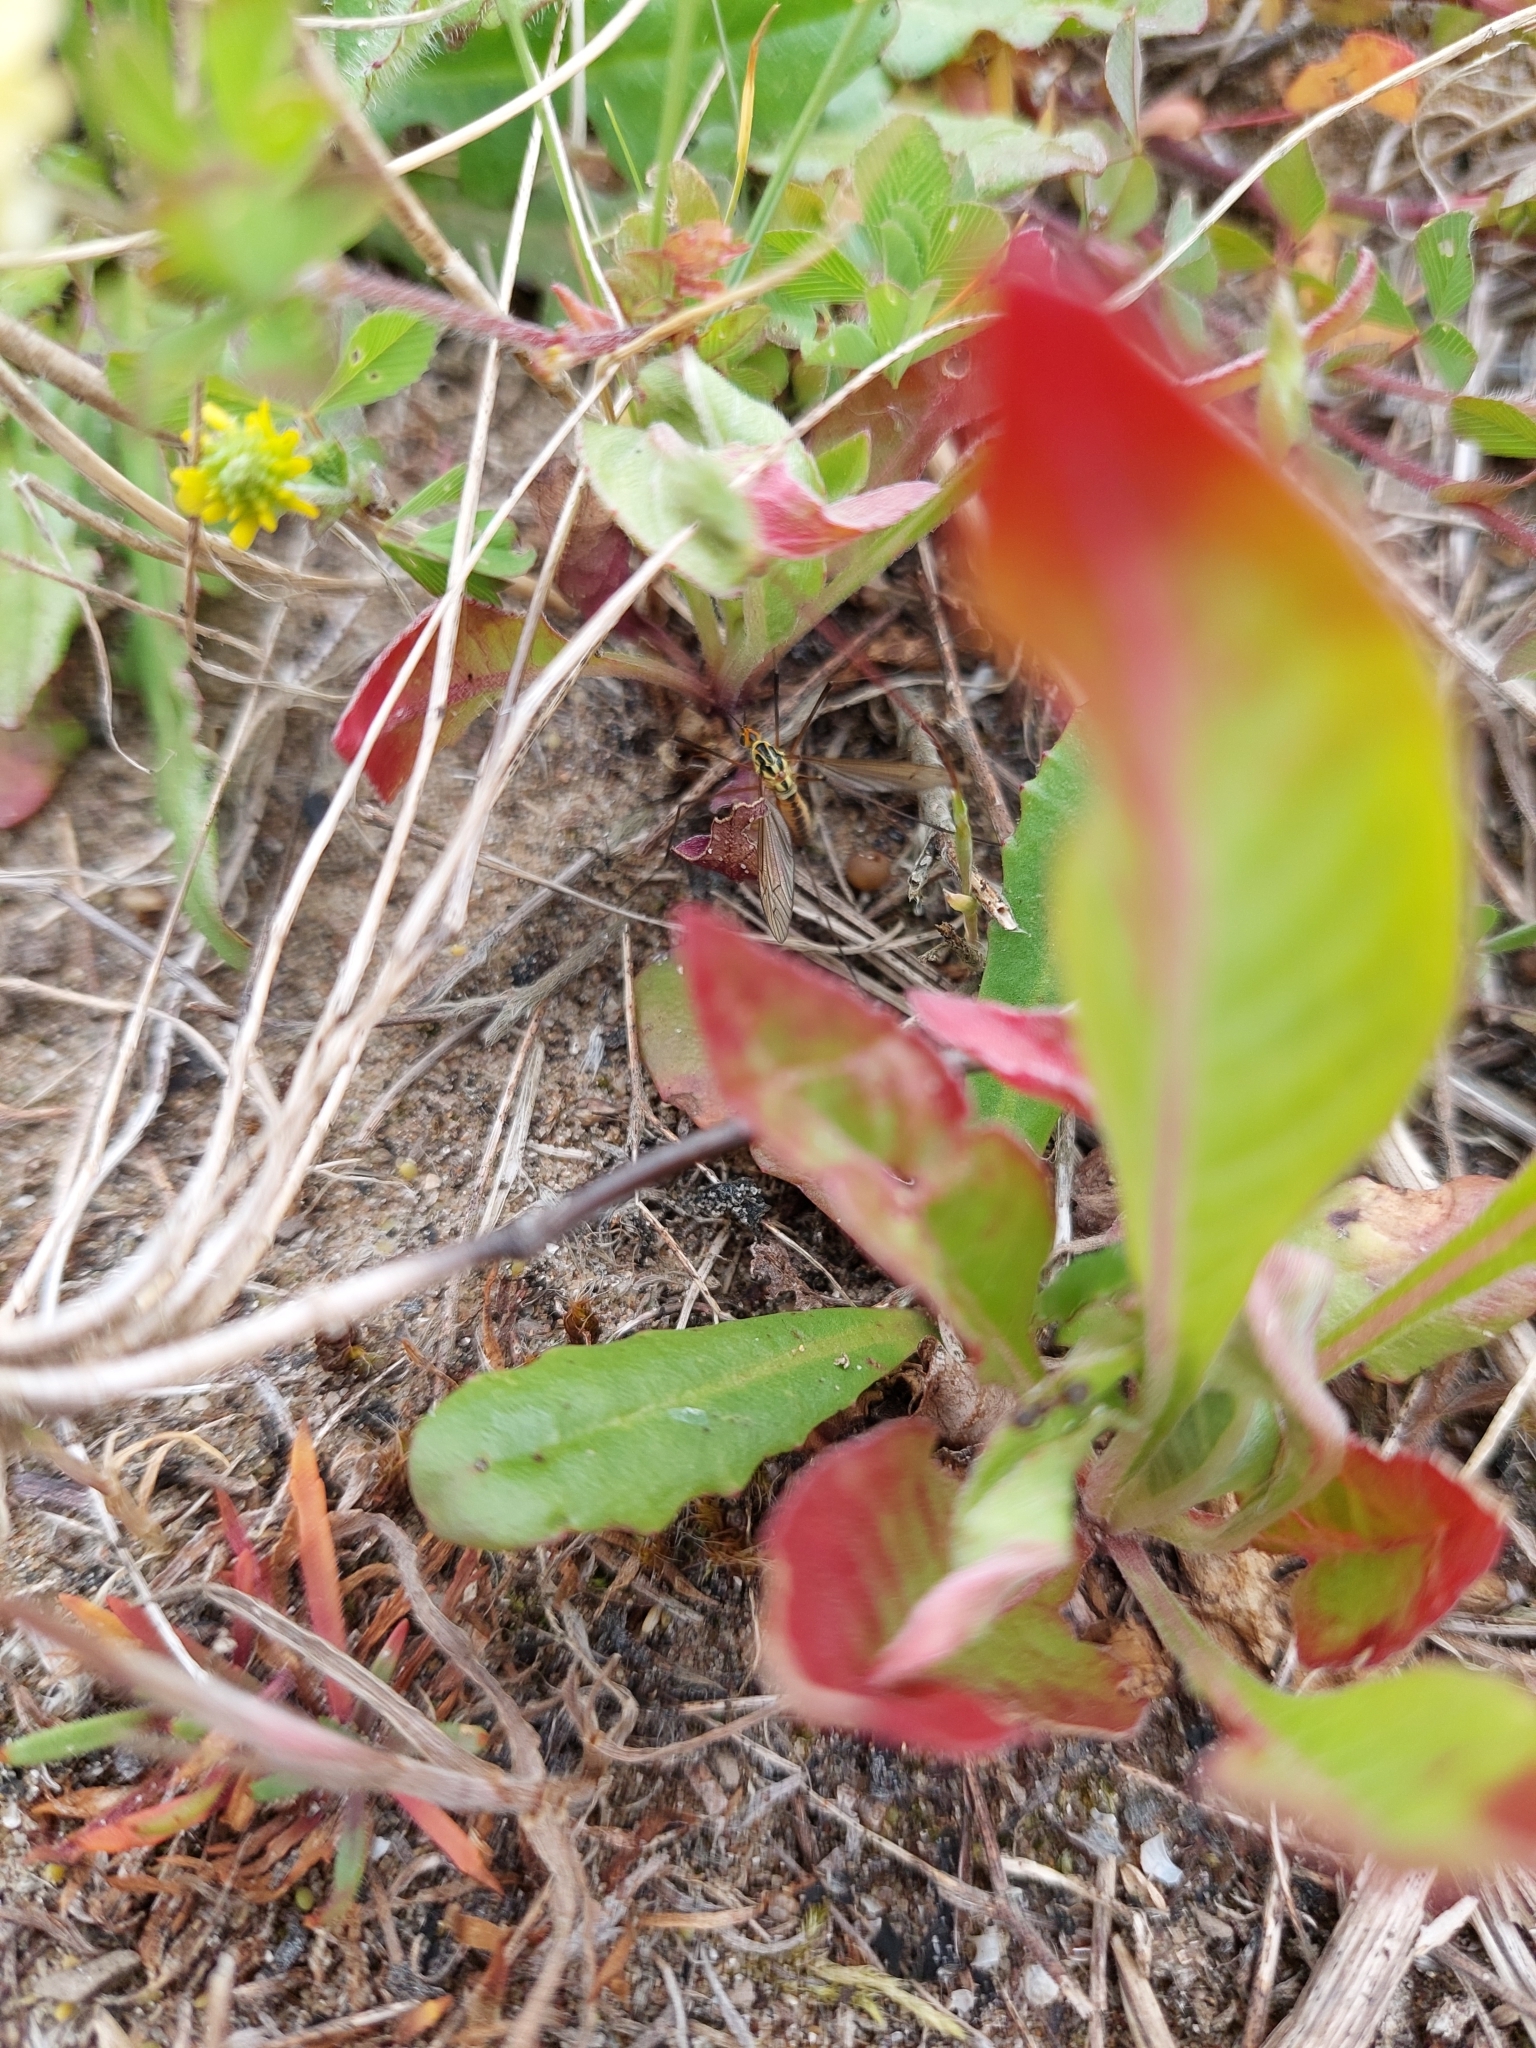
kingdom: Animalia
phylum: Arthropoda
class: Insecta
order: Diptera
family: Tipulidae
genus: Nephrotoma
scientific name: Nephrotoma submaculosa
